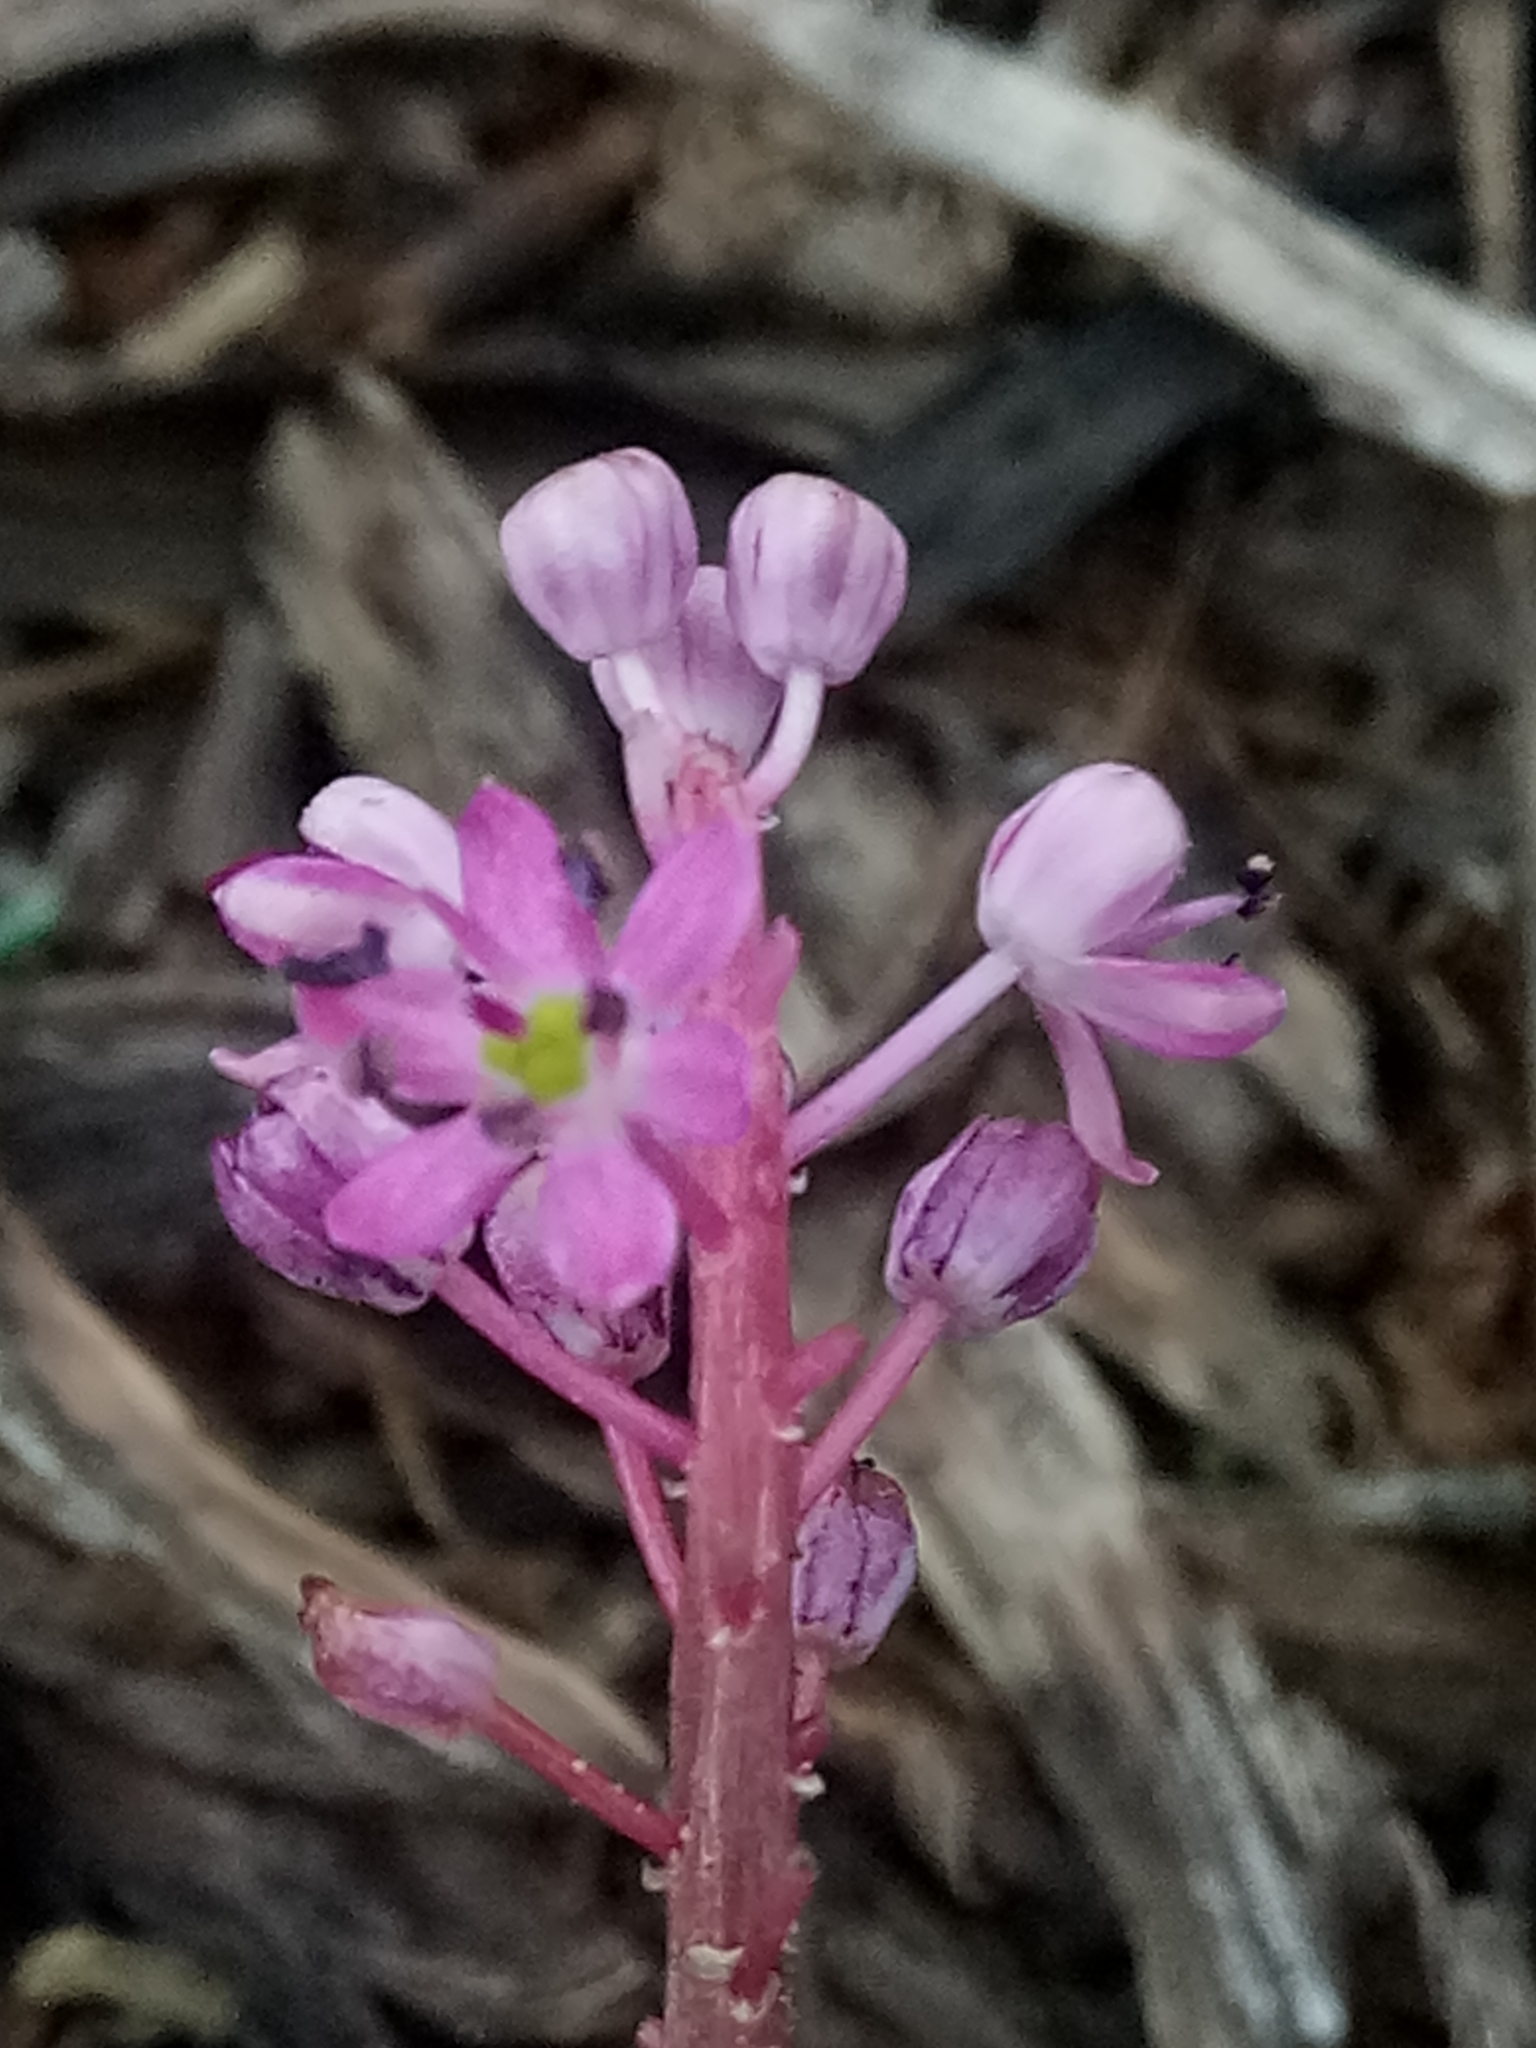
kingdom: Plantae
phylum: Tracheophyta
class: Liliopsida
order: Asparagales
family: Asparagaceae
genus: Barnardia
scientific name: Barnardia numidica
